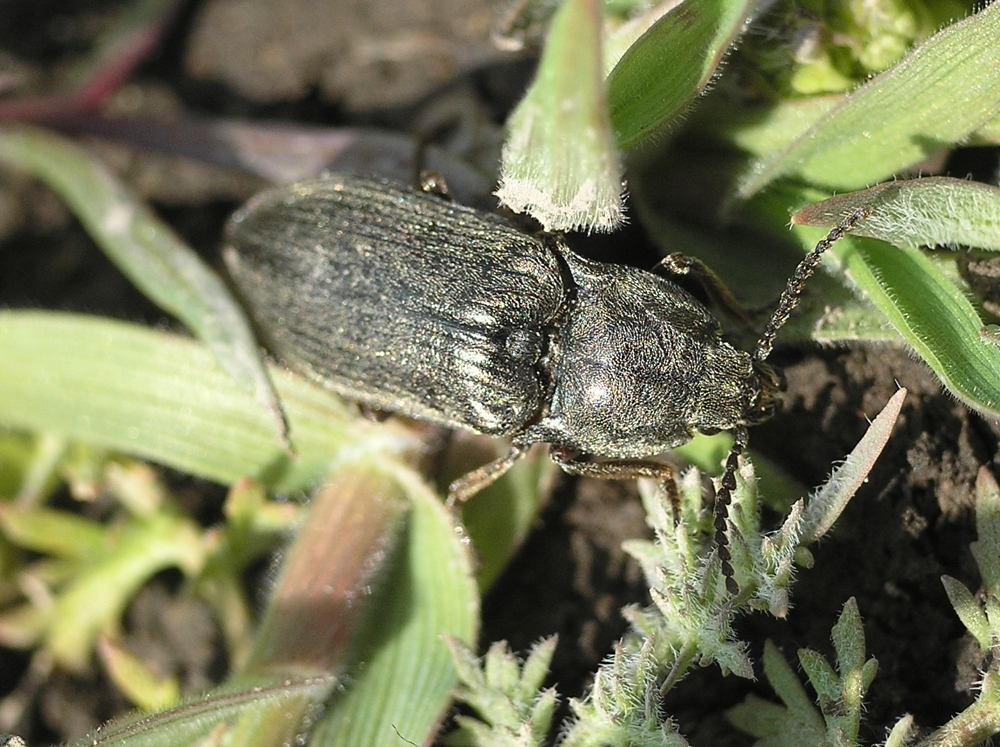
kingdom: Animalia
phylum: Arthropoda
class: Insecta
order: Coleoptera
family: Elateridae
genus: Selatosomus
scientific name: Selatosomus latus
